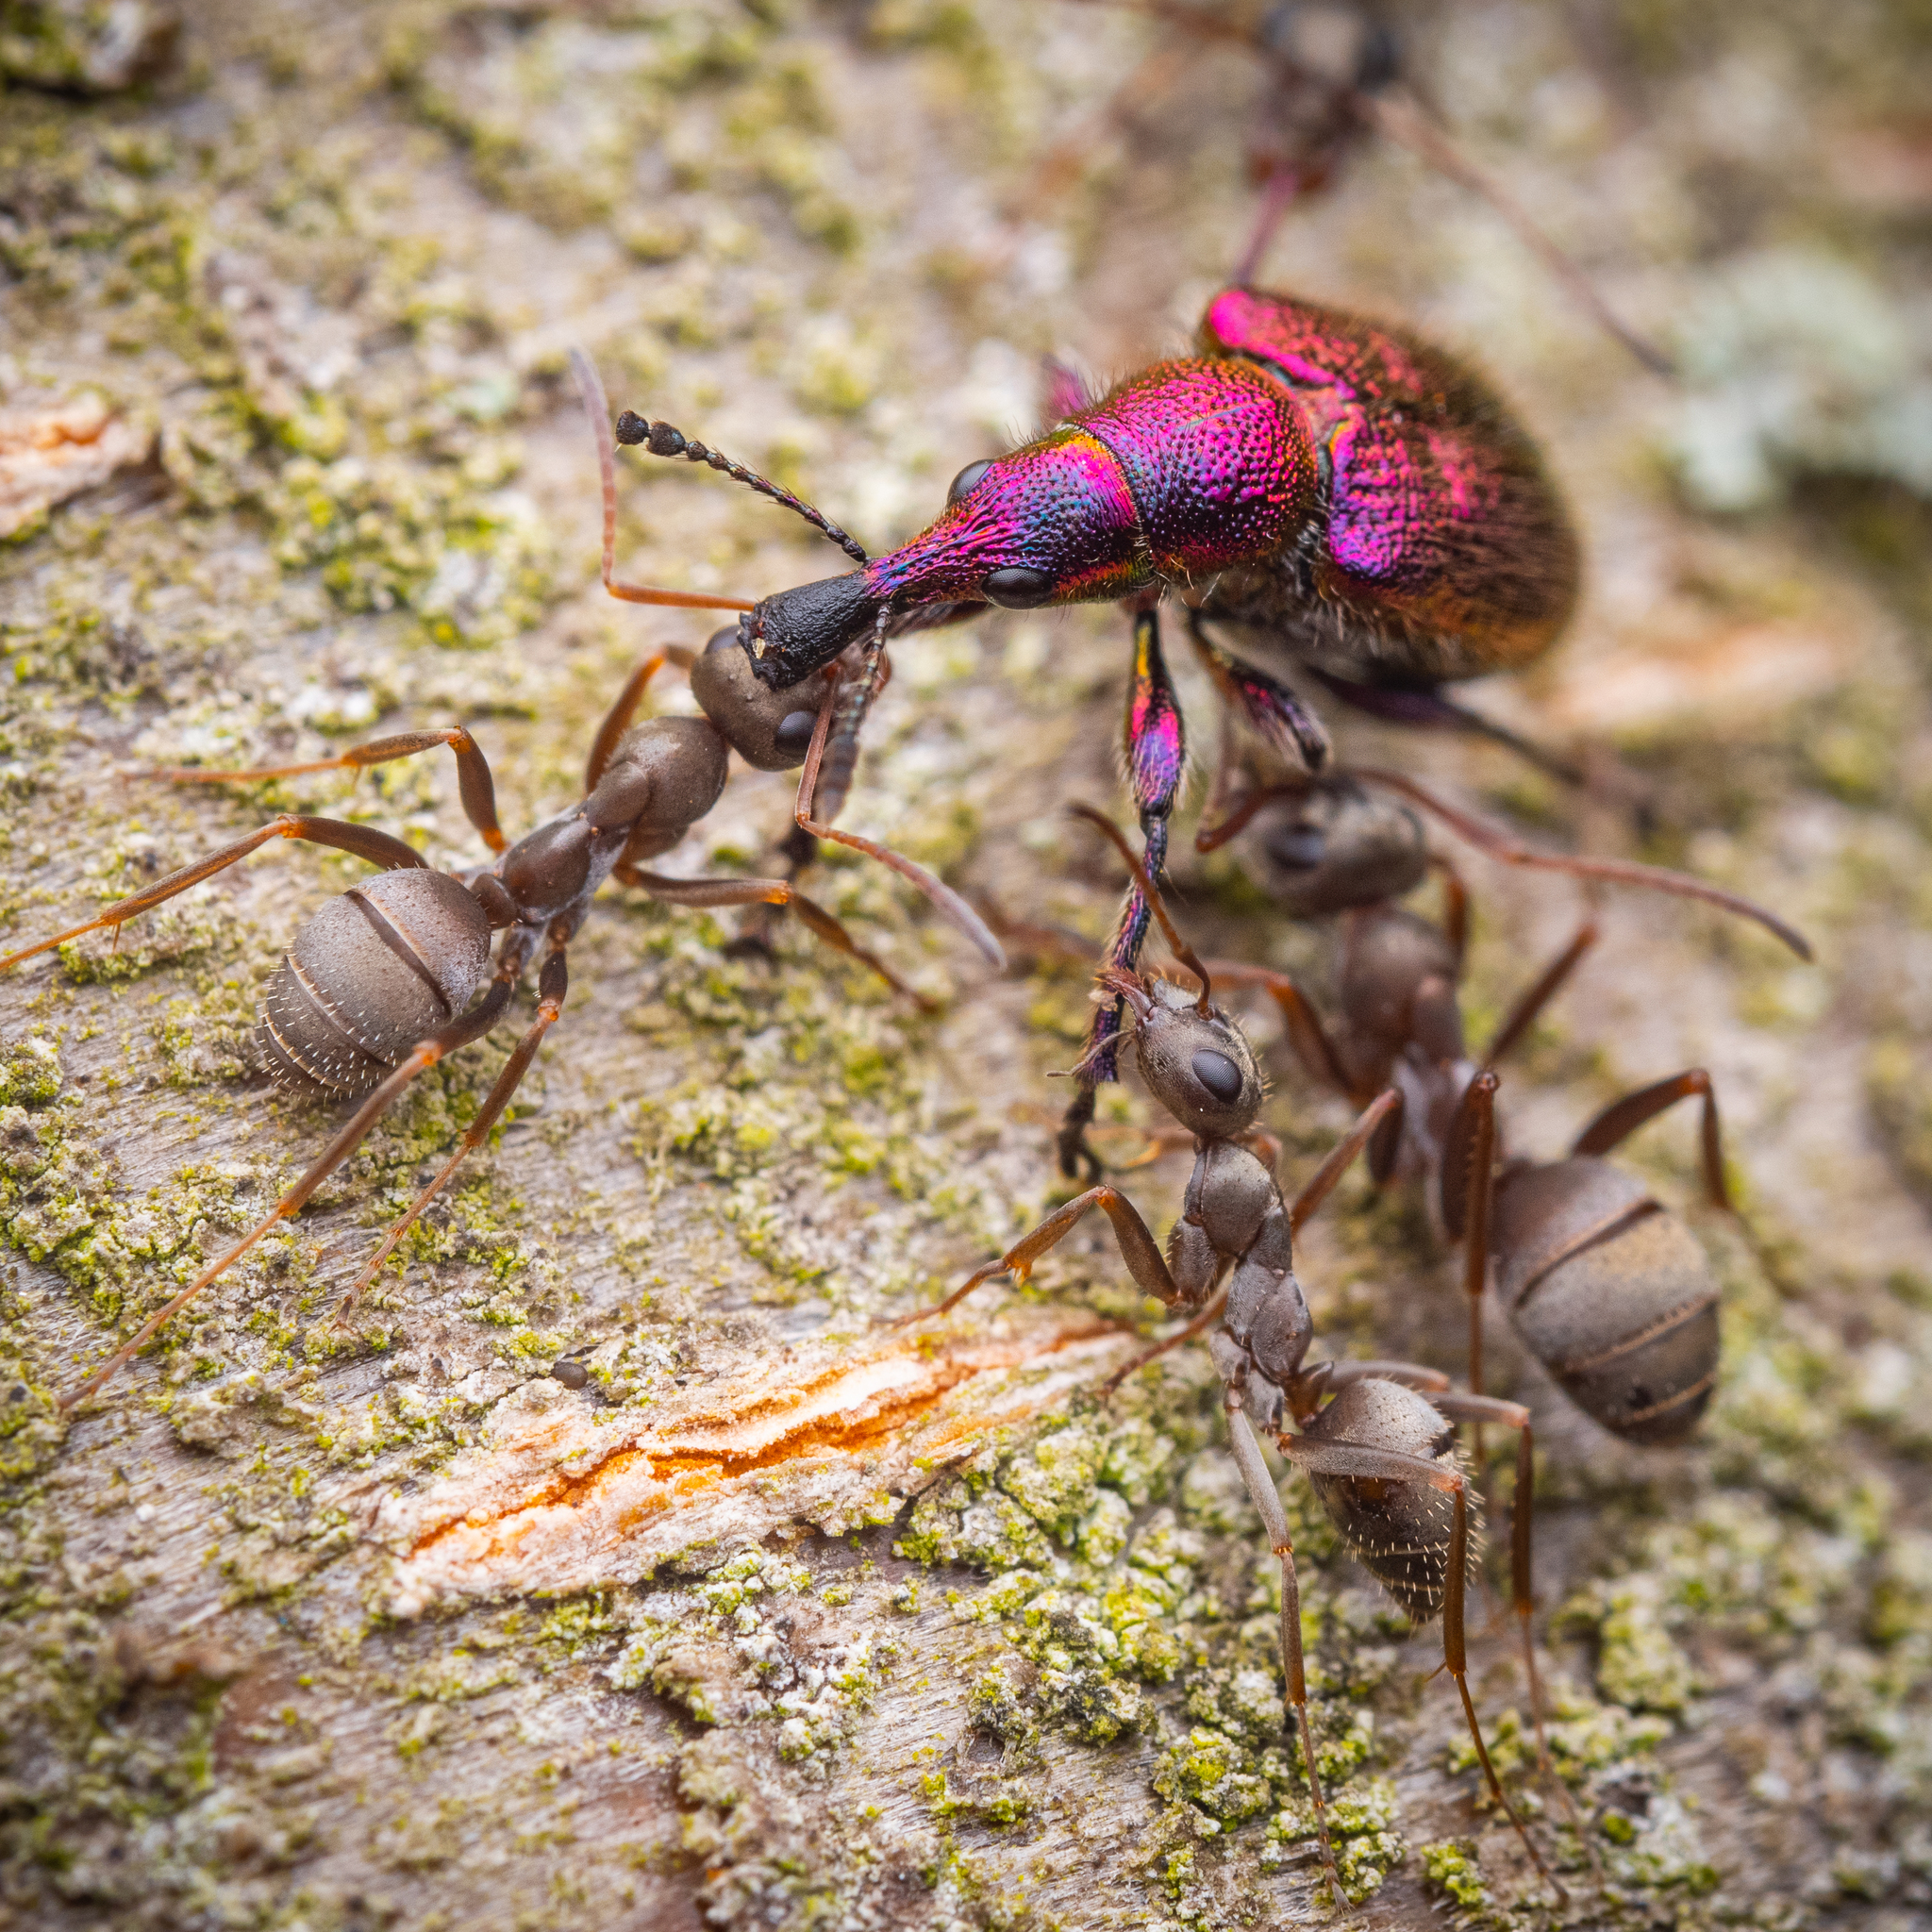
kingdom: Animalia
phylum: Arthropoda
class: Insecta
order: Hymenoptera
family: Formicidae
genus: Formica
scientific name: Formica cinerea
